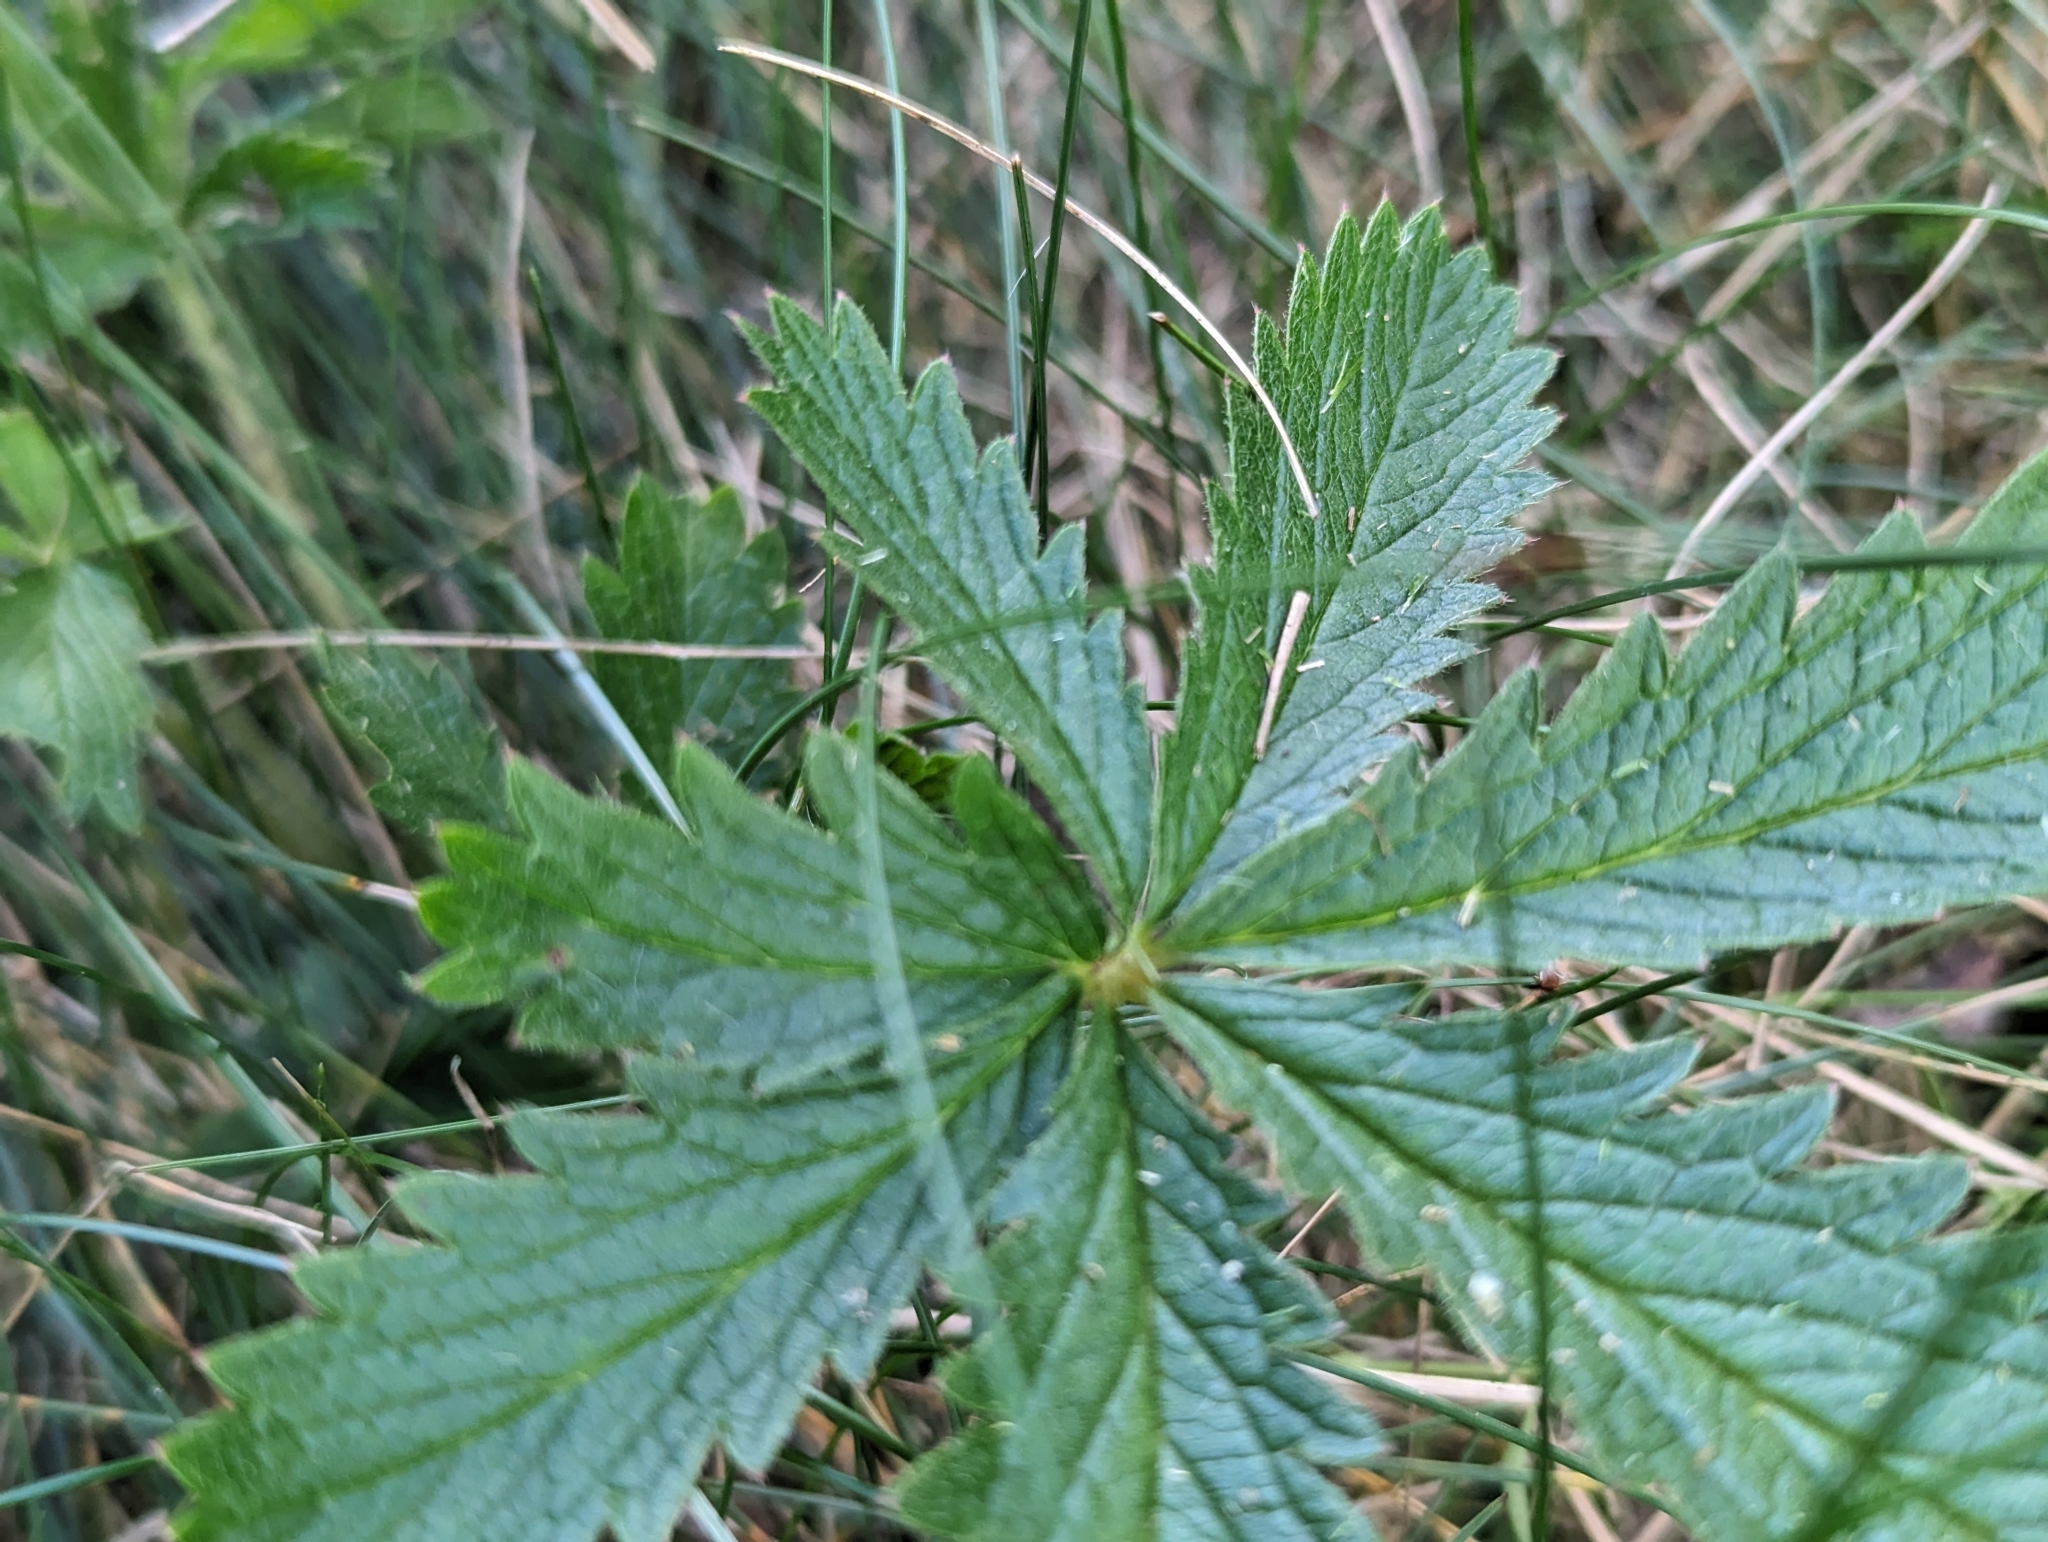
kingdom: Plantae
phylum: Tracheophyta
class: Magnoliopsida
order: Rosales
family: Rosaceae
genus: Potentilla
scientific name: Potentilla recta
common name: Sulphur cinquefoil
